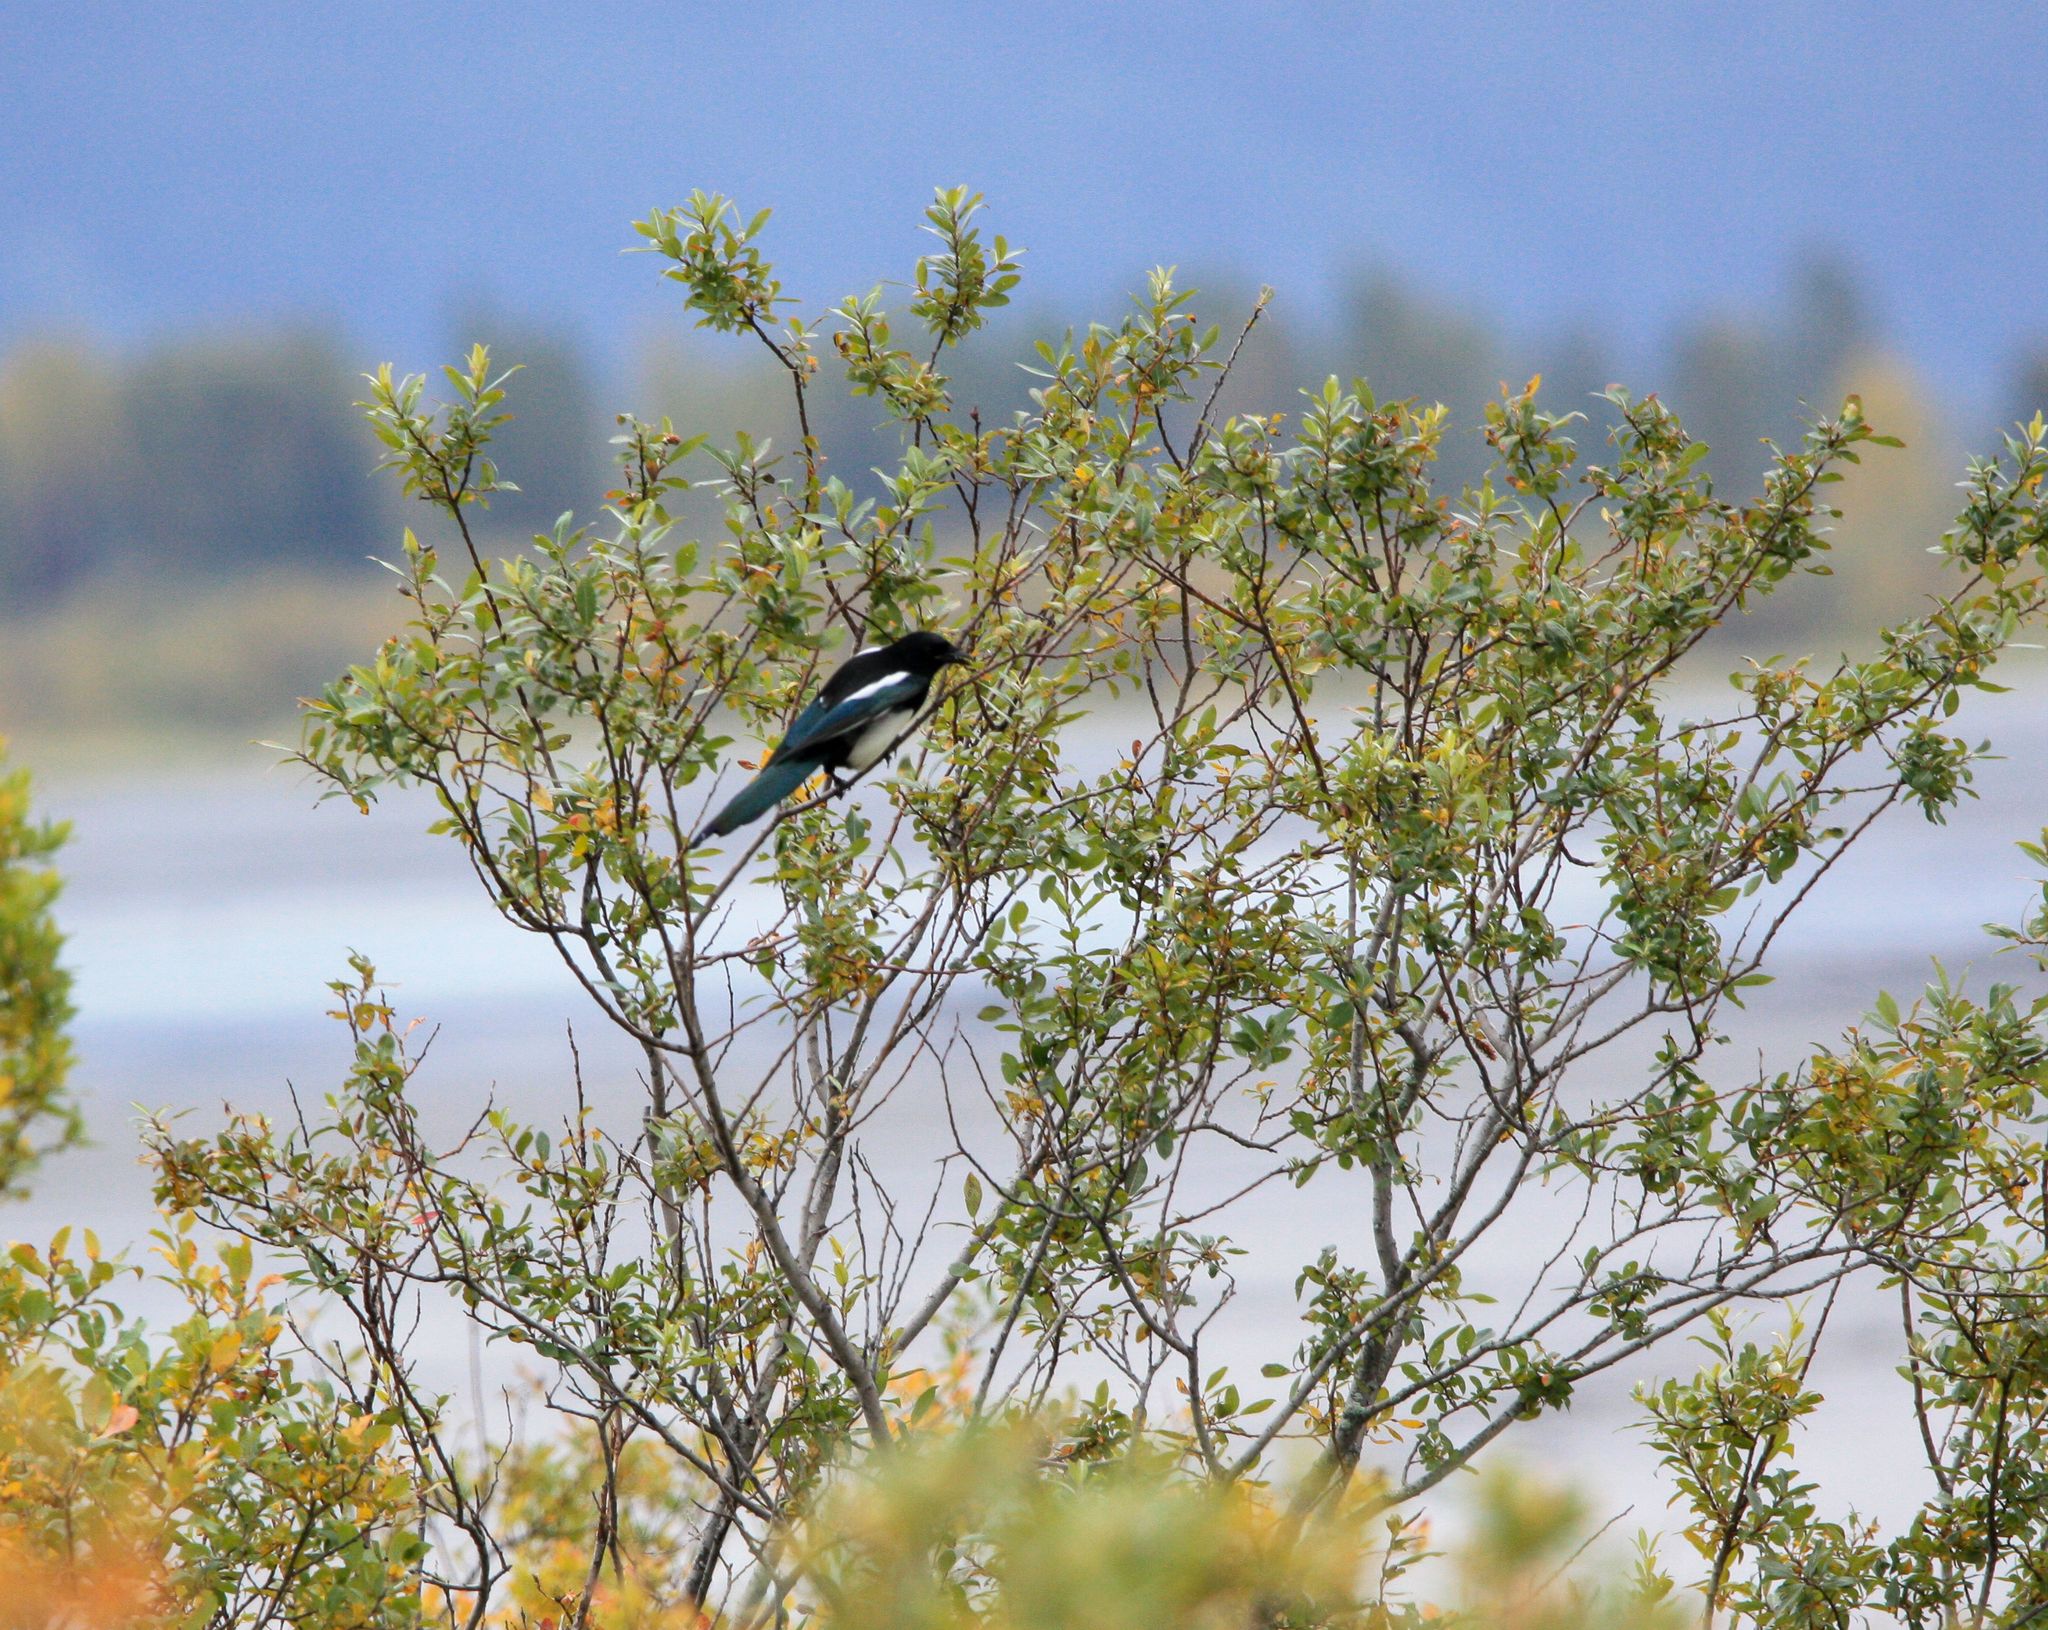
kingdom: Animalia
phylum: Chordata
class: Aves
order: Passeriformes
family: Corvidae
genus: Pica
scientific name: Pica hudsonia
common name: Black-billed magpie
